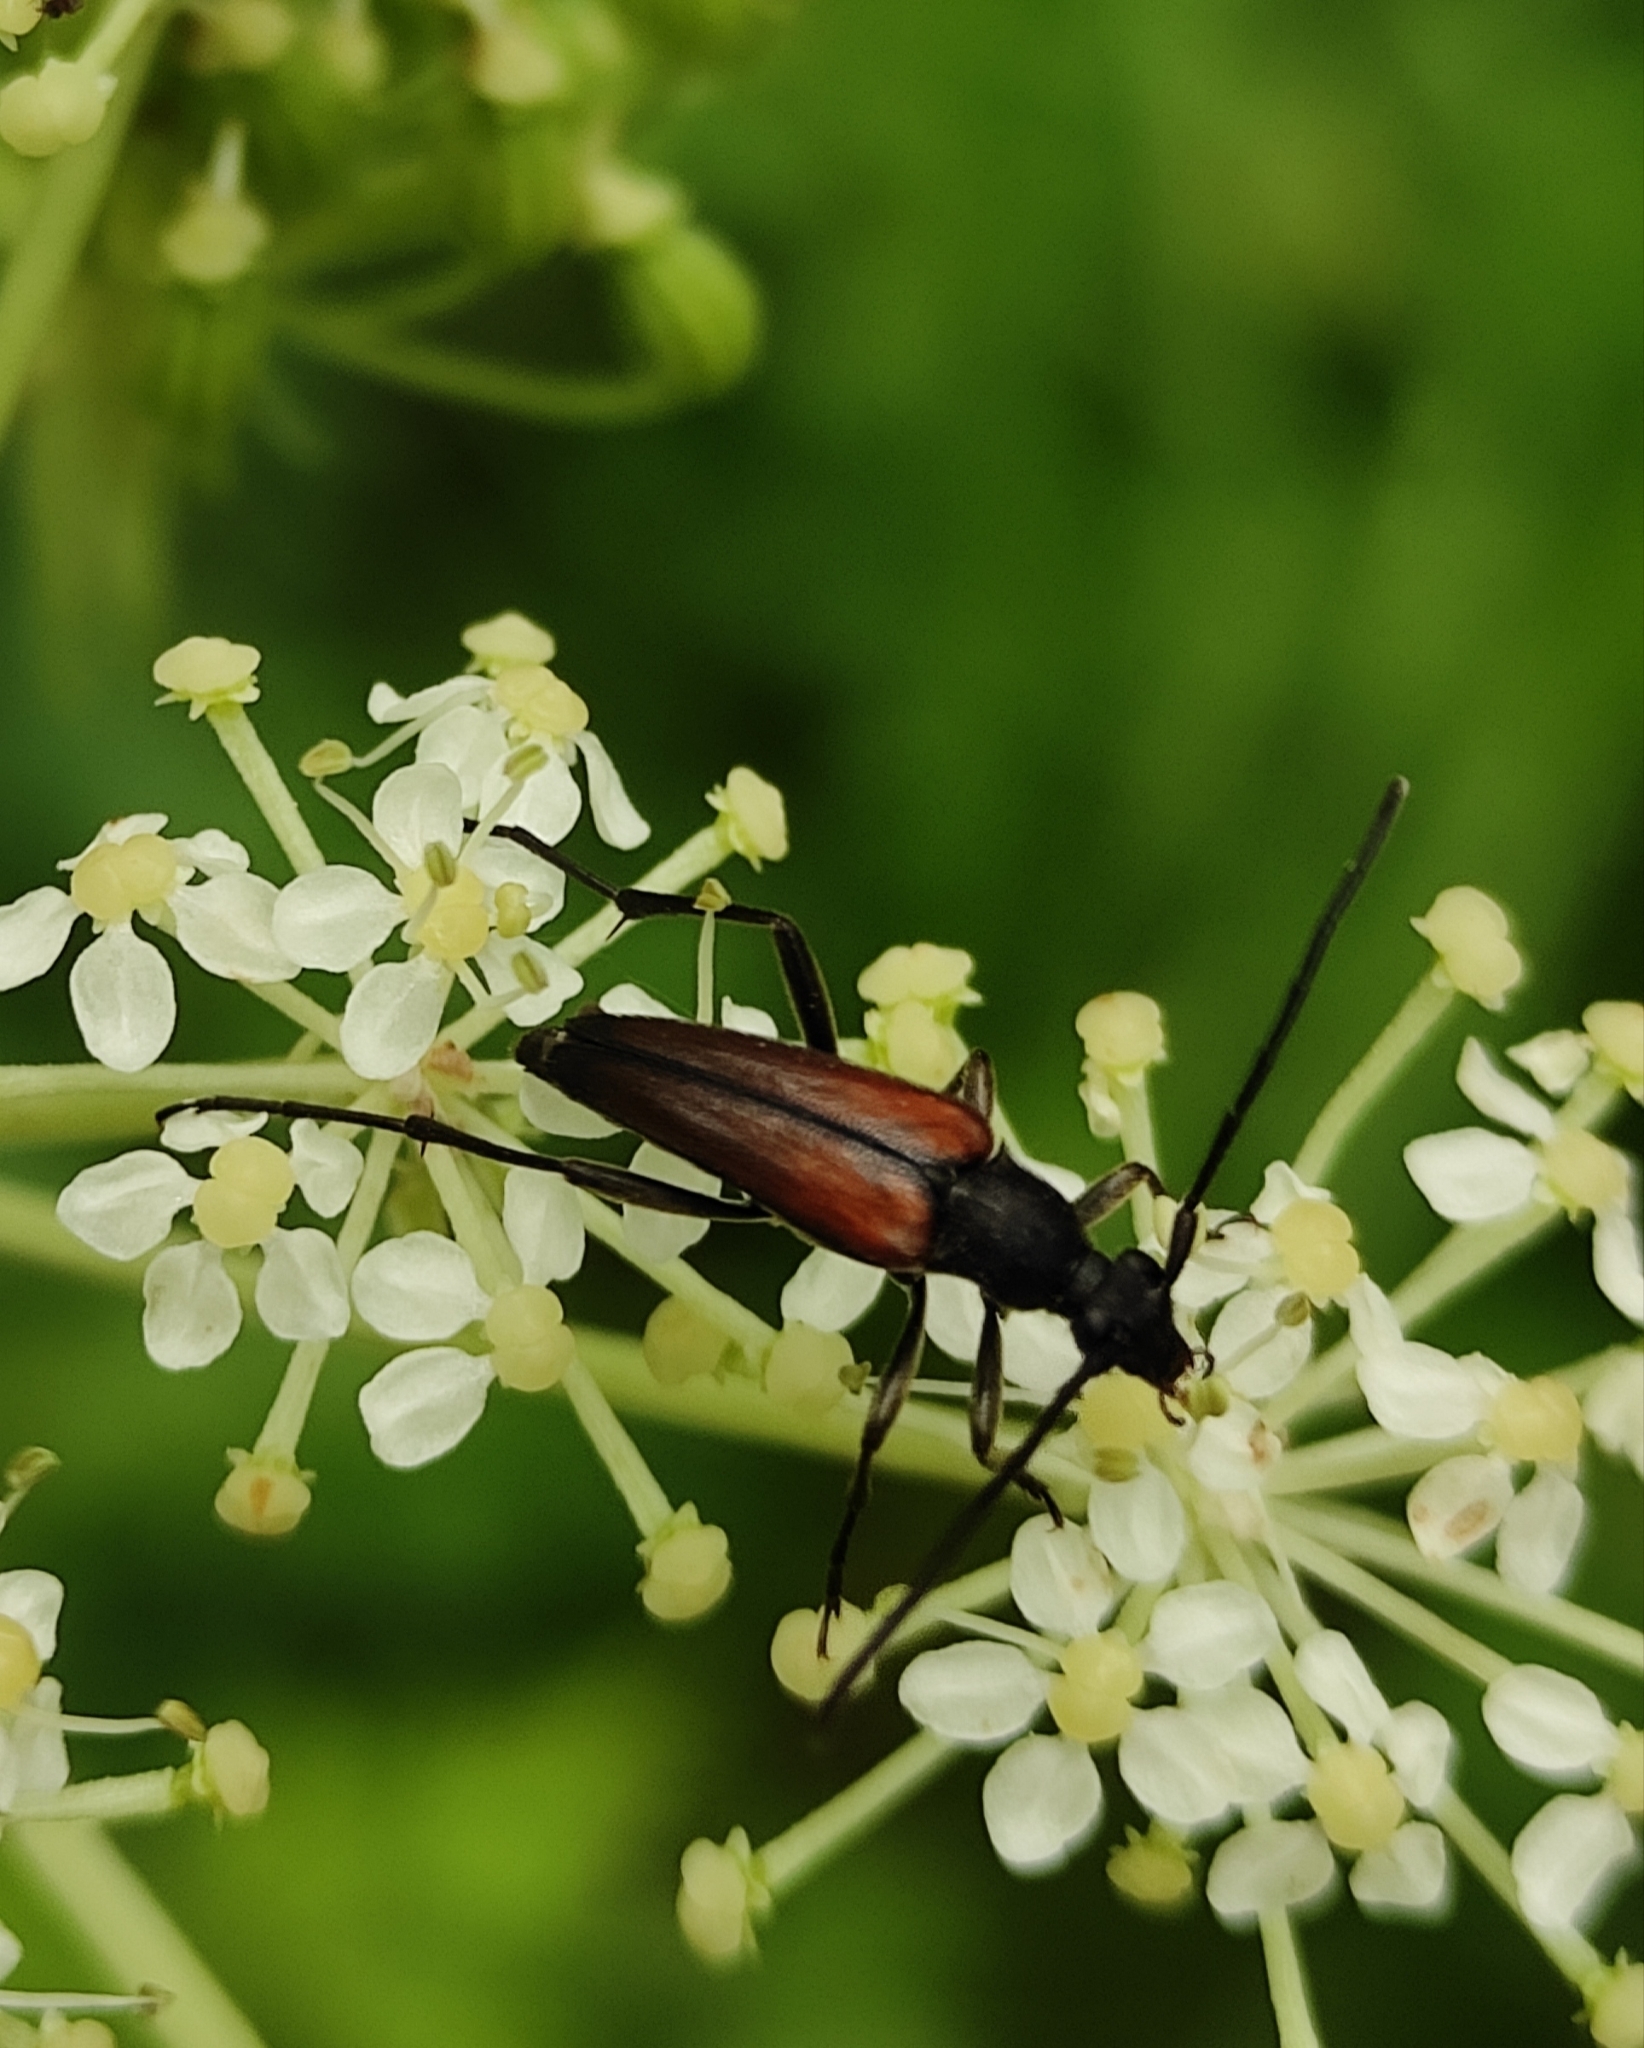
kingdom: Animalia
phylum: Arthropoda
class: Insecta
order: Coleoptera
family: Cerambycidae
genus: Stenurella
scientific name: Stenurella melanura
